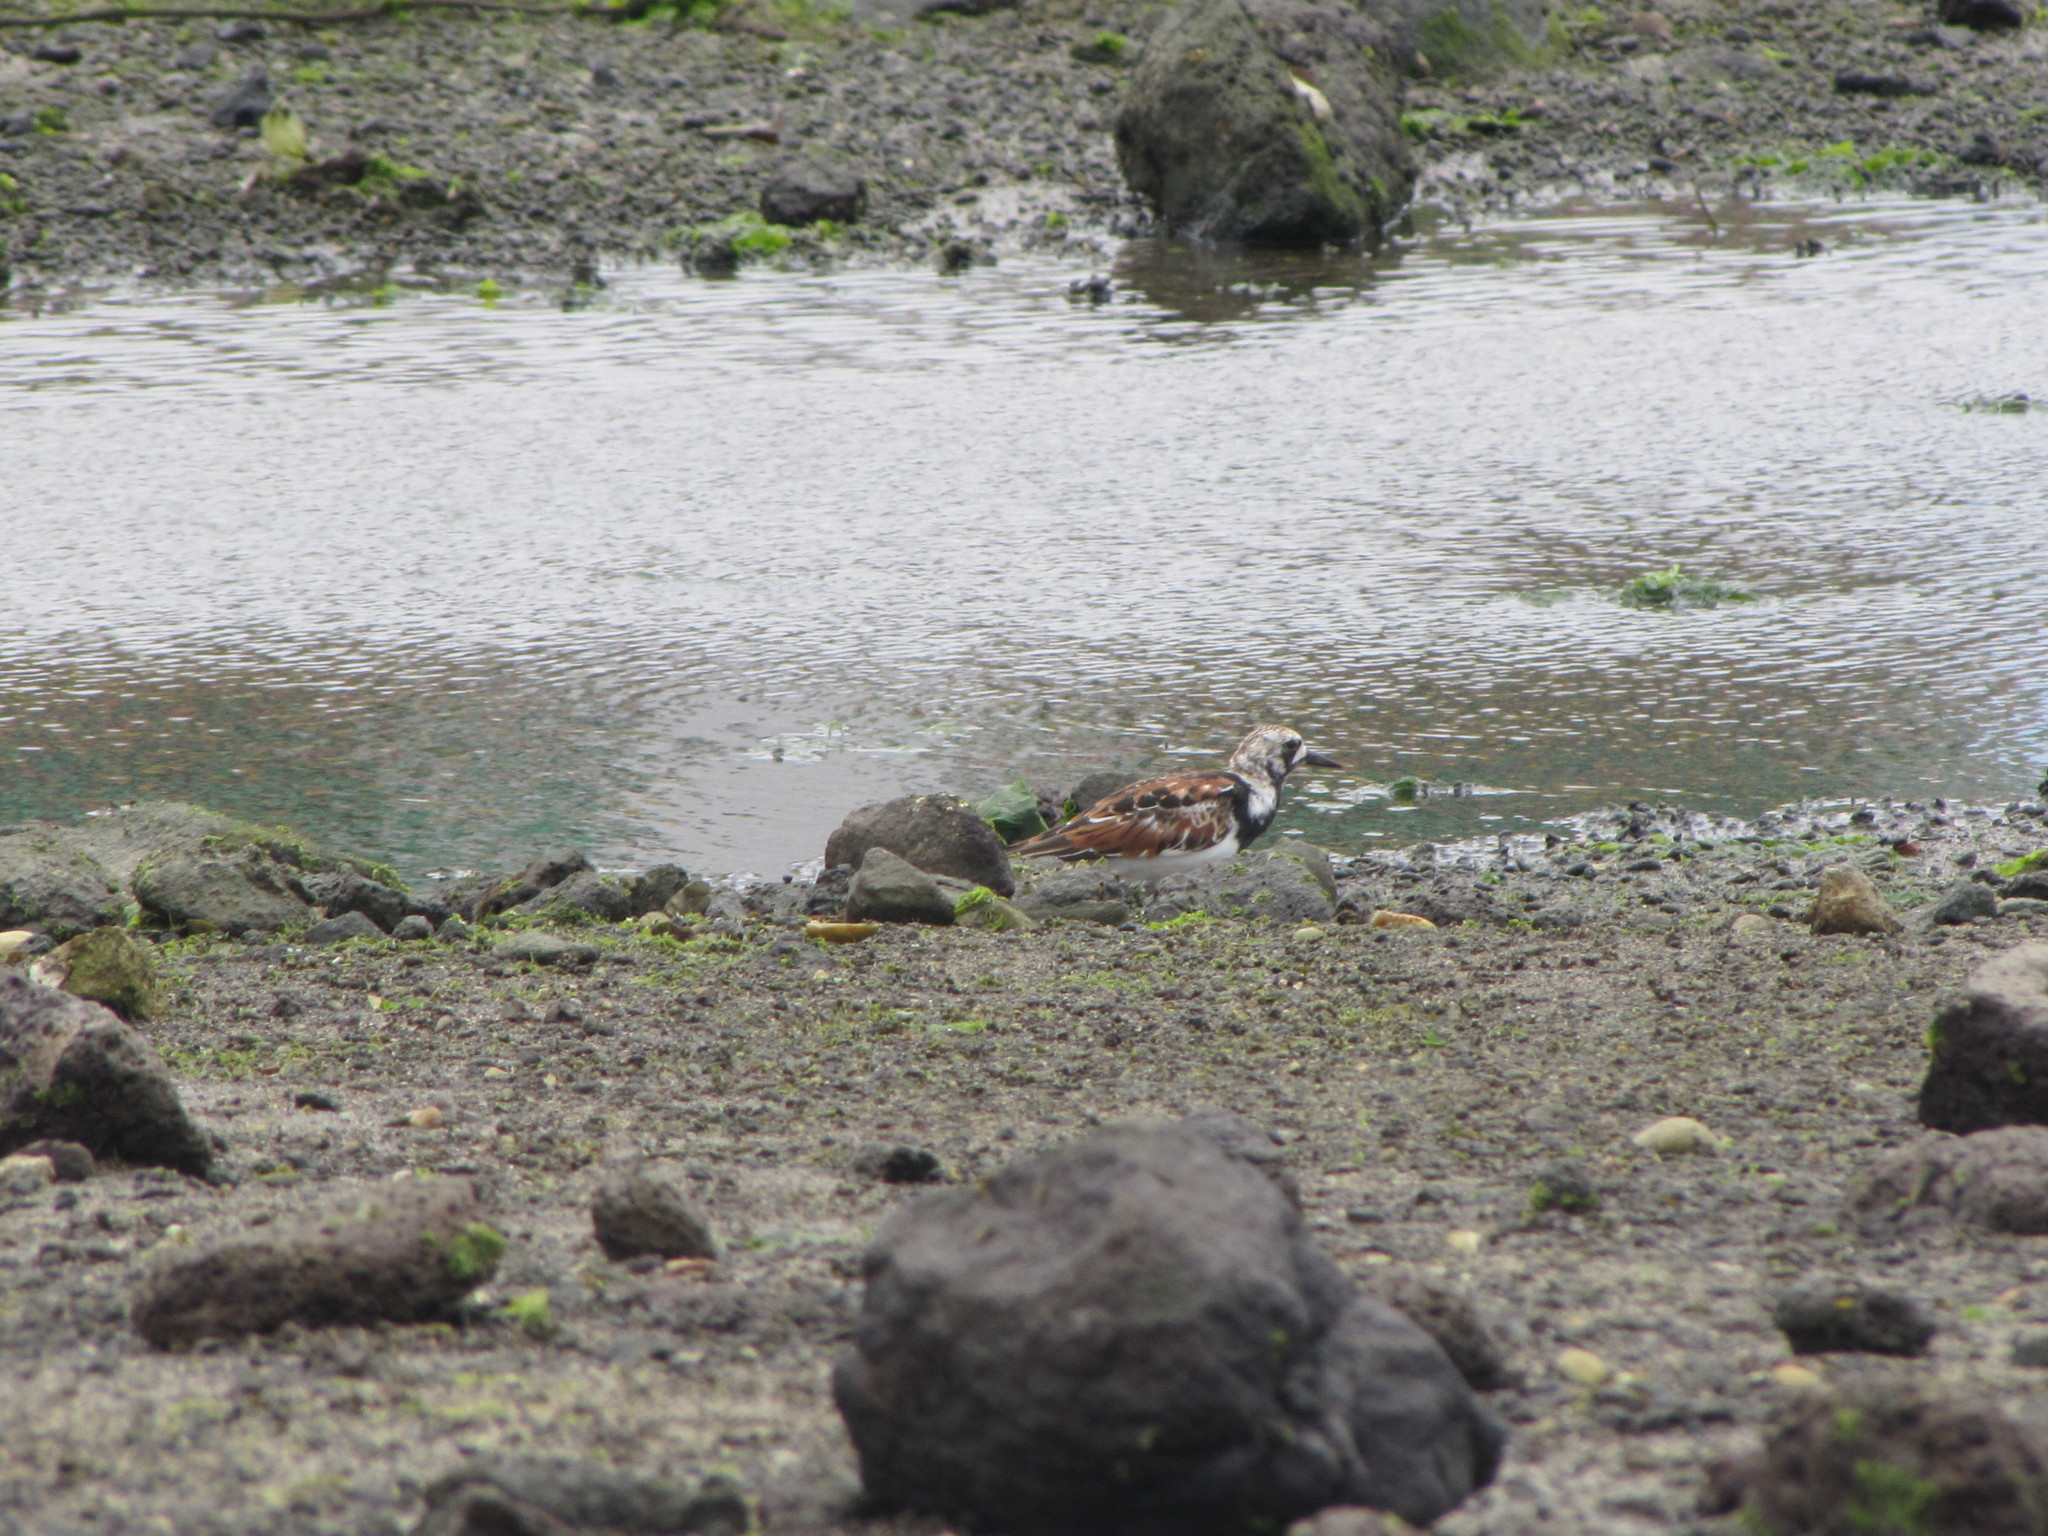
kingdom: Animalia
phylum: Chordata
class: Aves
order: Charadriiformes
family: Scolopacidae
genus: Arenaria
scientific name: Arenaria interpres
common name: Ruddy turnstone
